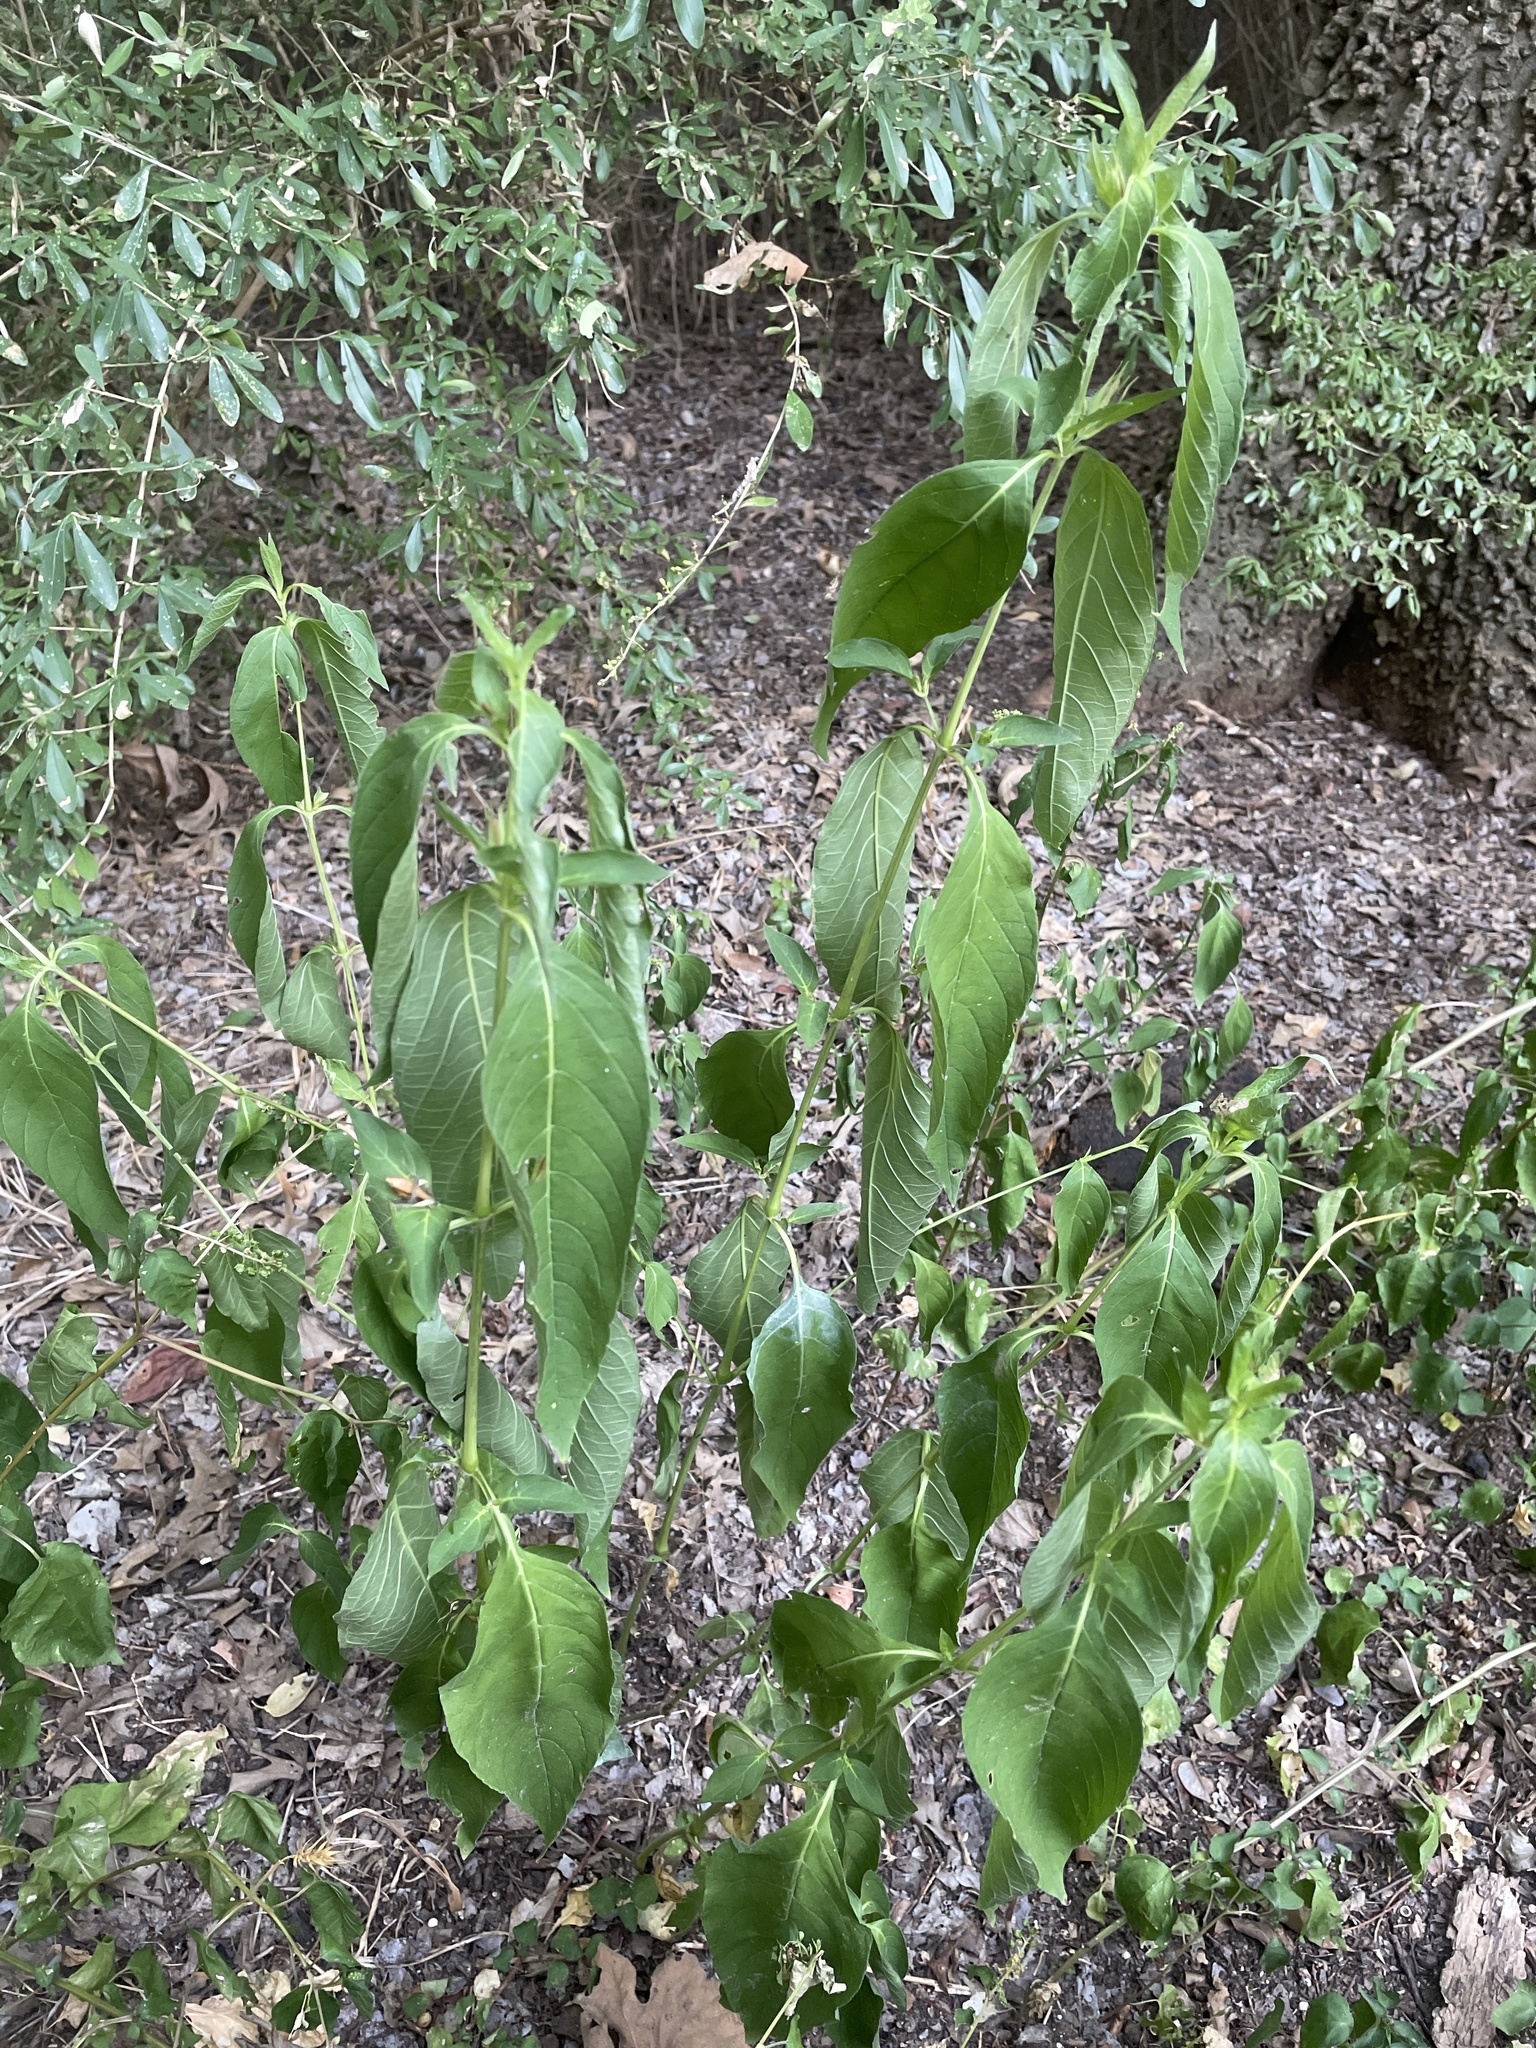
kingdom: Plantae
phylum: Tracheophyta
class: Magnoliopsida
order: Lamiales
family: Acanthaceae
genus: Ruellia
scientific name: Ruellia strepens
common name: Limestone wild petunia
